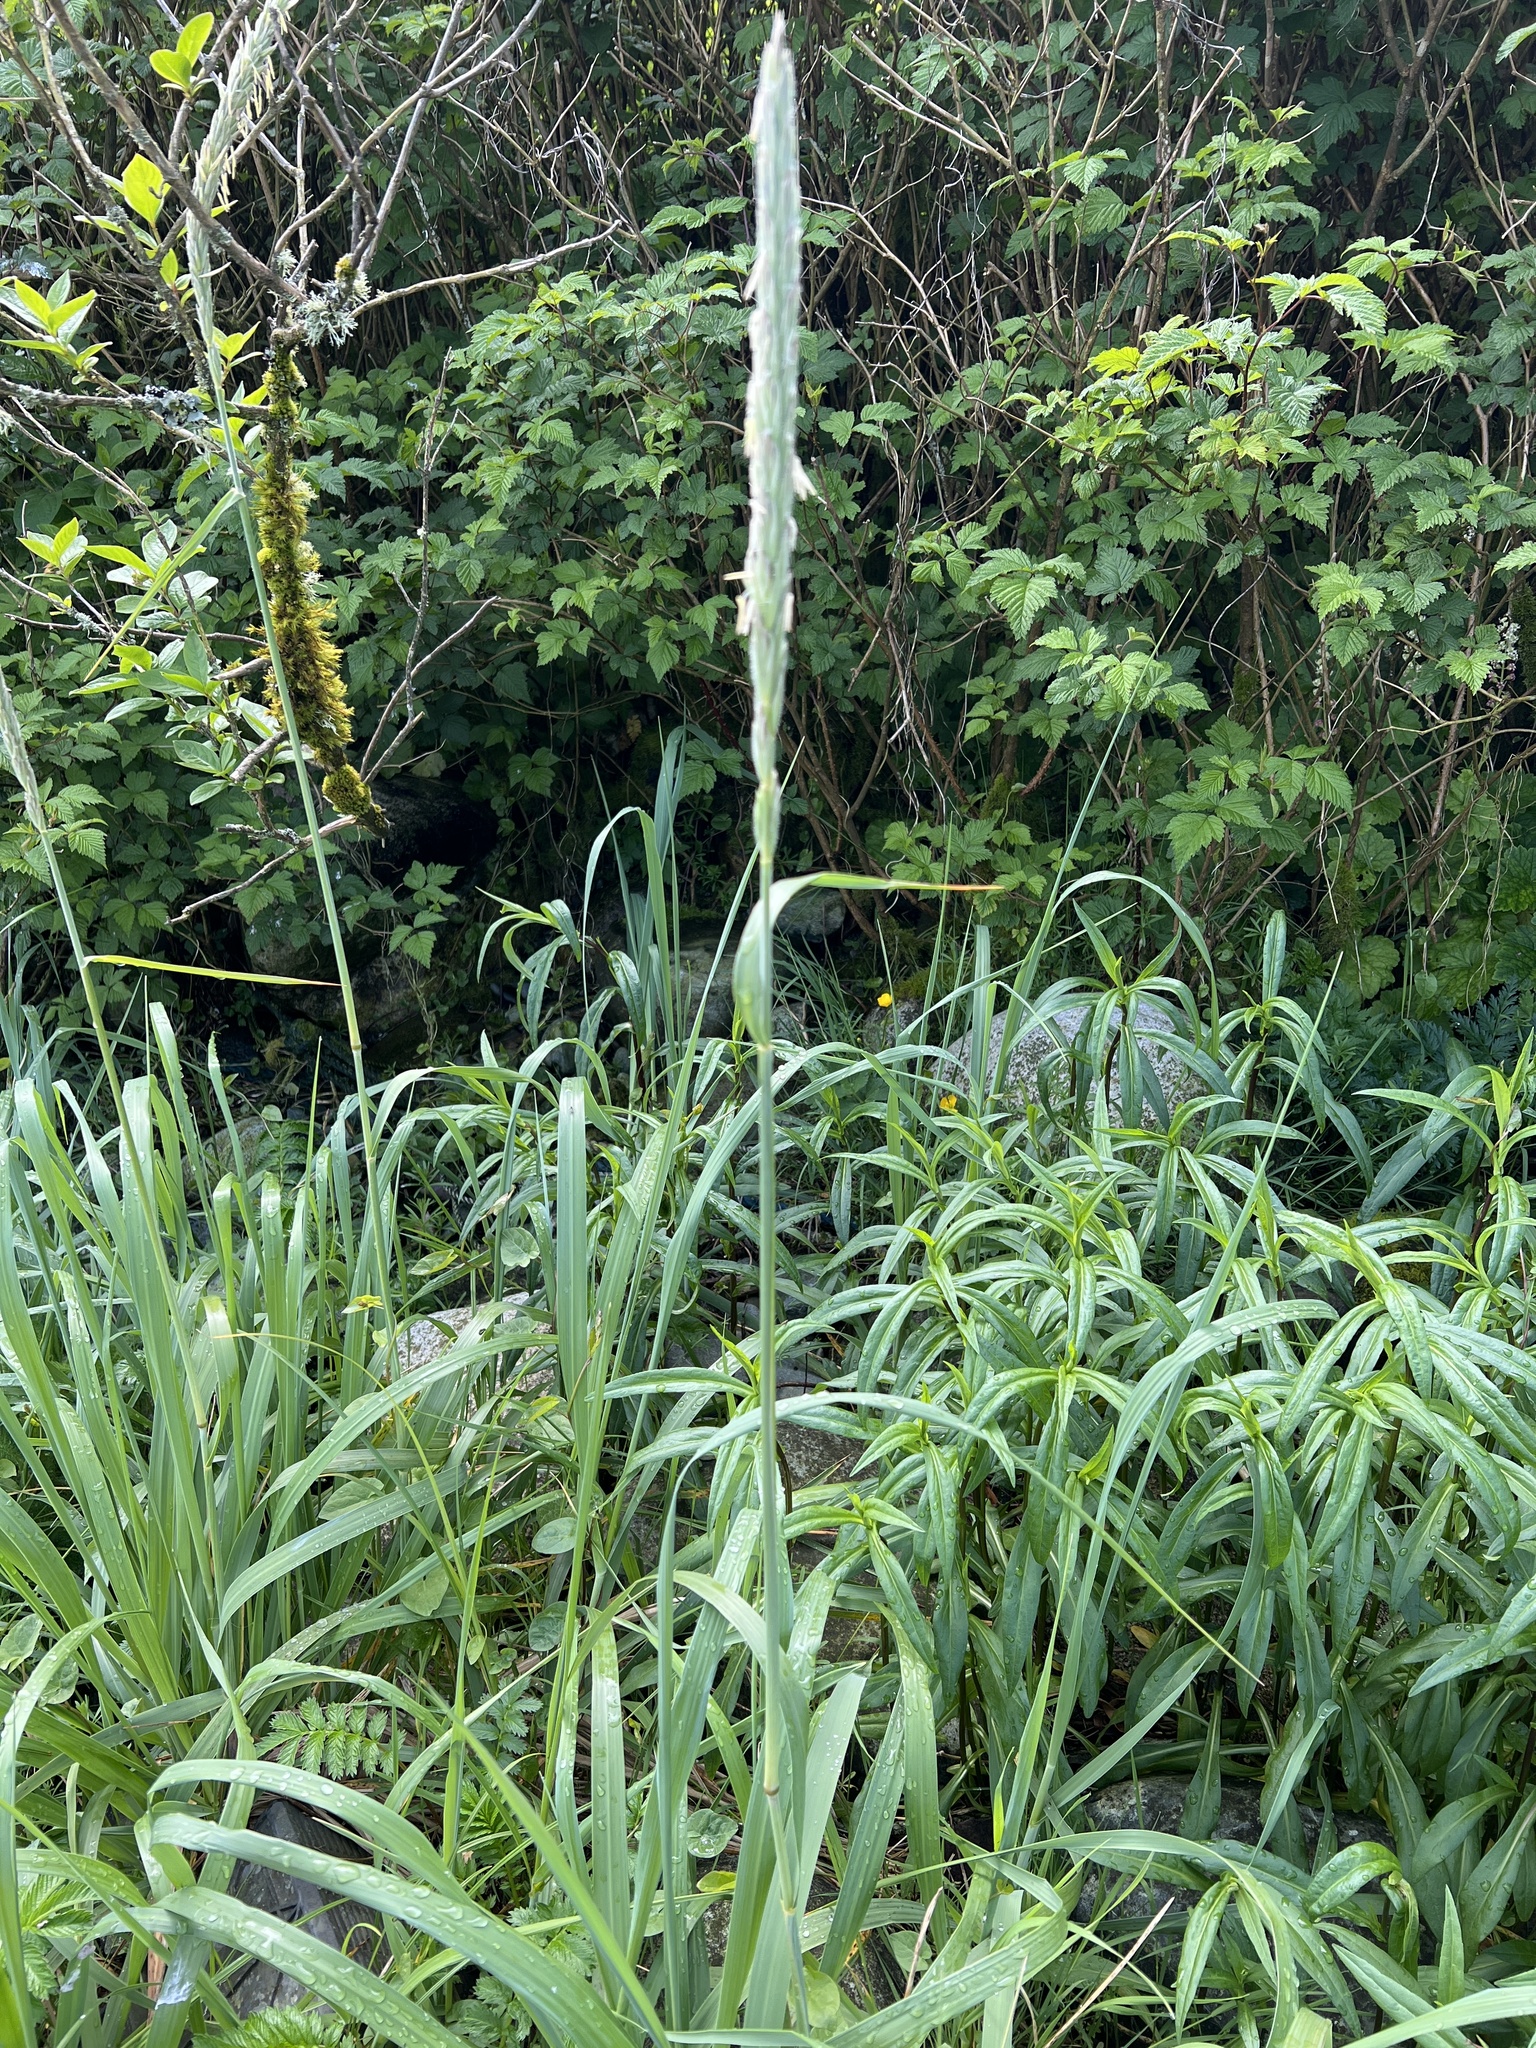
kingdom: Plantae
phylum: Tracheophyta
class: Liliopsida
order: Poales
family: Poaceae
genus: Leymus
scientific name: Leymus mollis
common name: American dune grass
